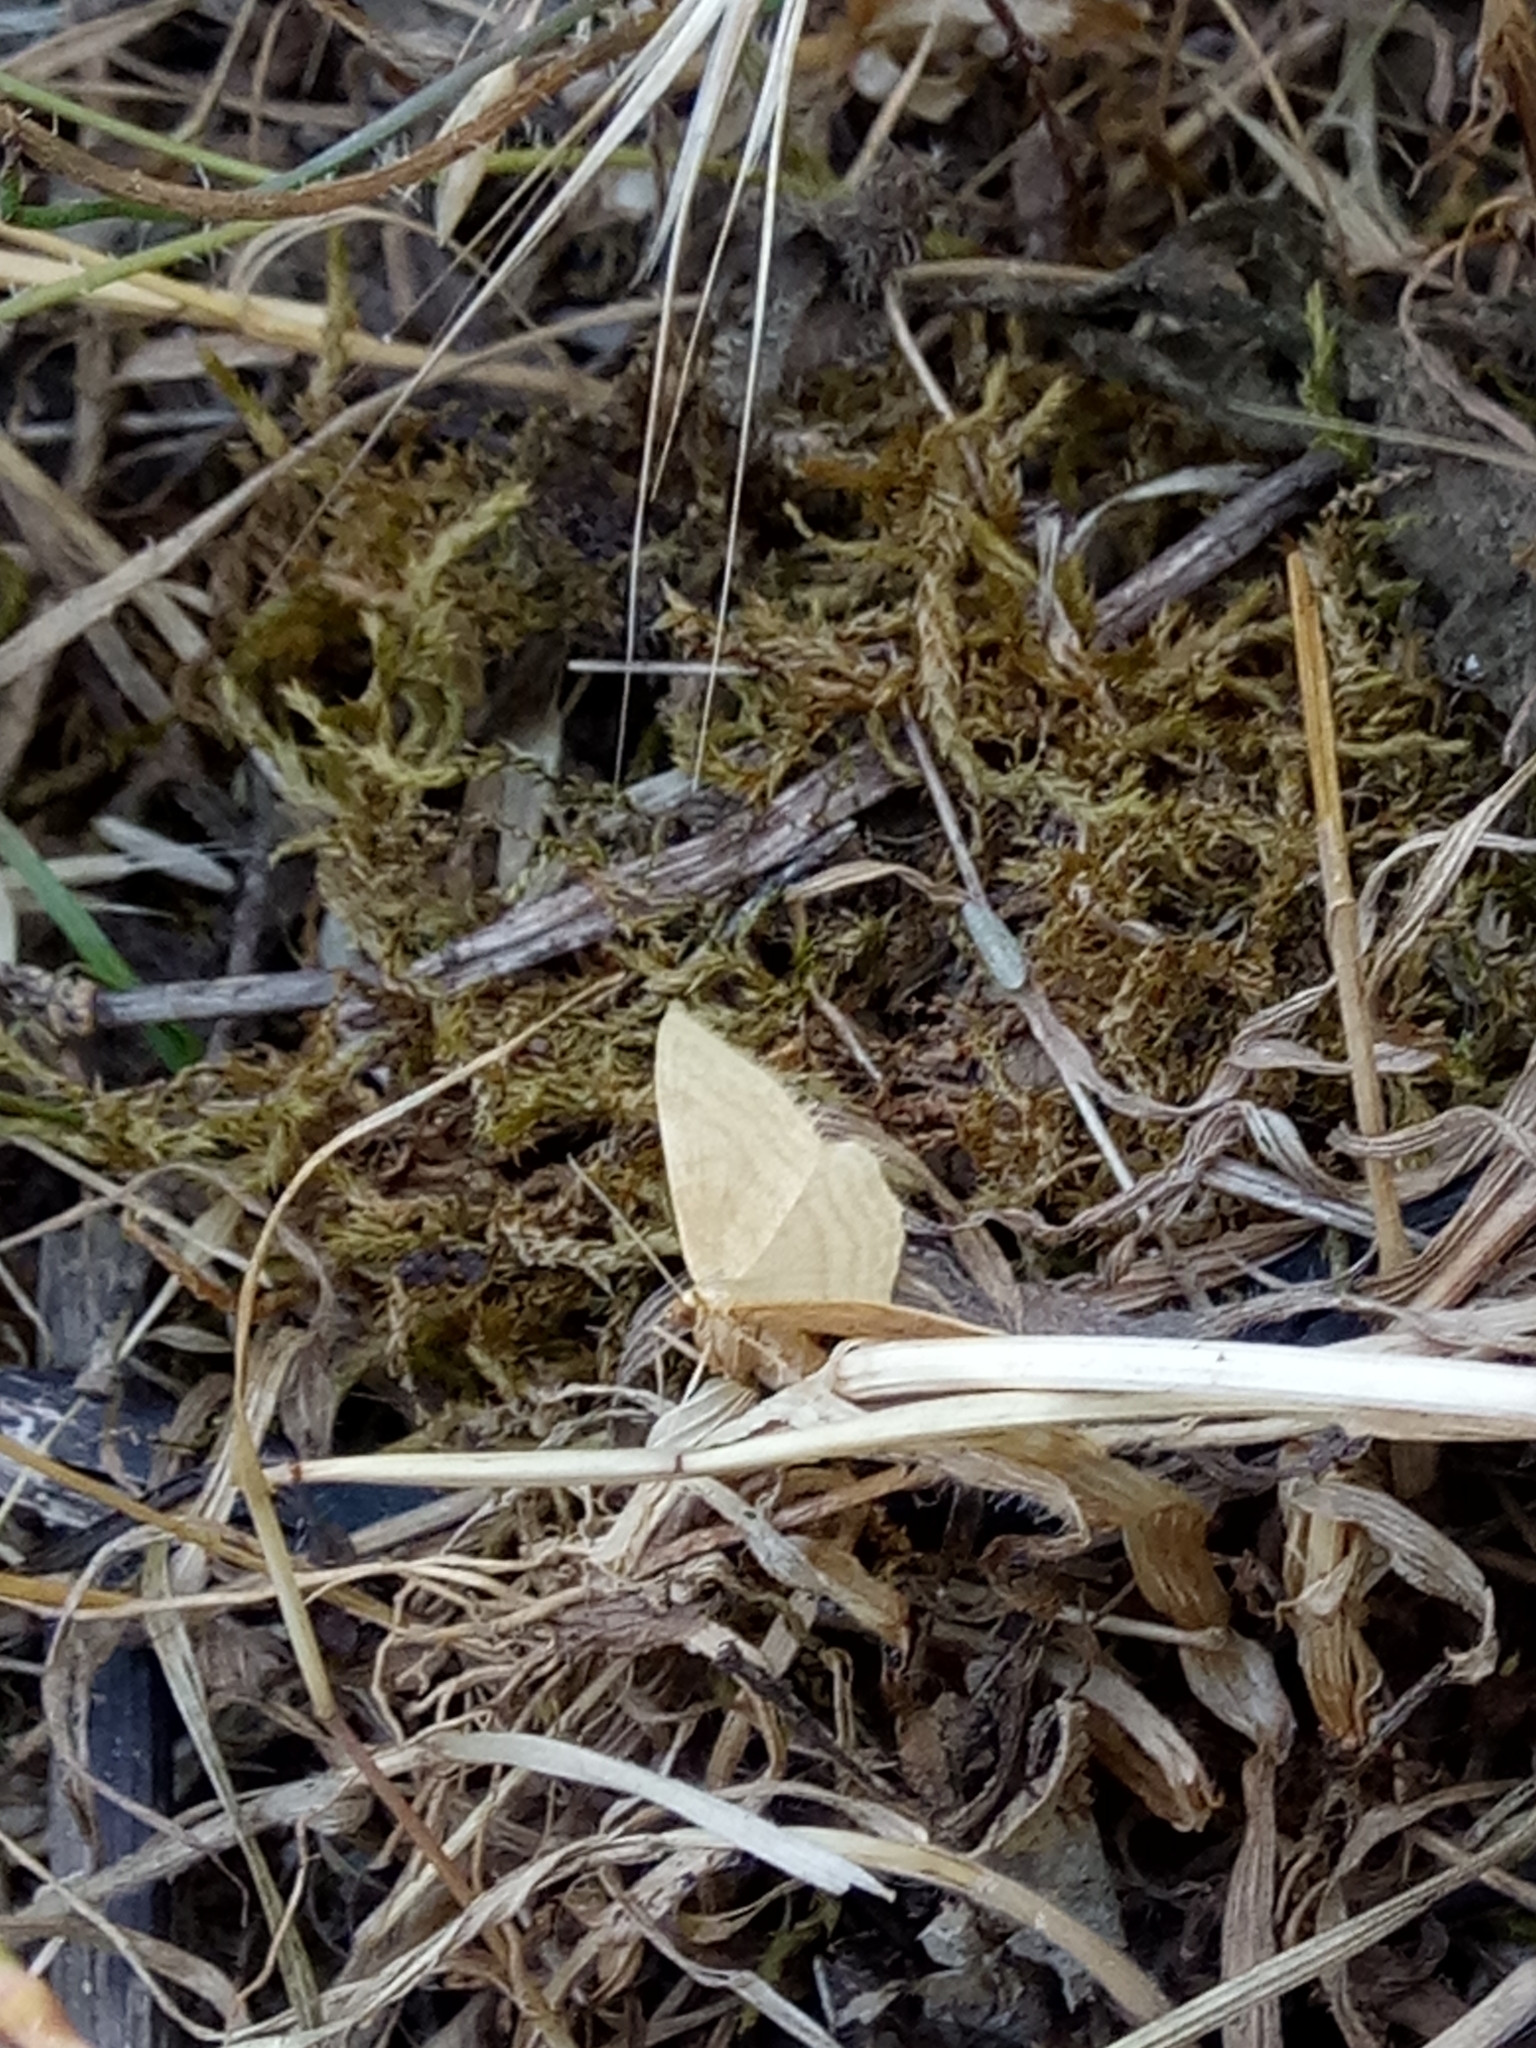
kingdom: Animalia
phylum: Arthropoda
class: Insecta
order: Lepidoptera
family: Geometridae
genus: Idaea
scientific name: Idaea ochrata
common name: Bright wave
